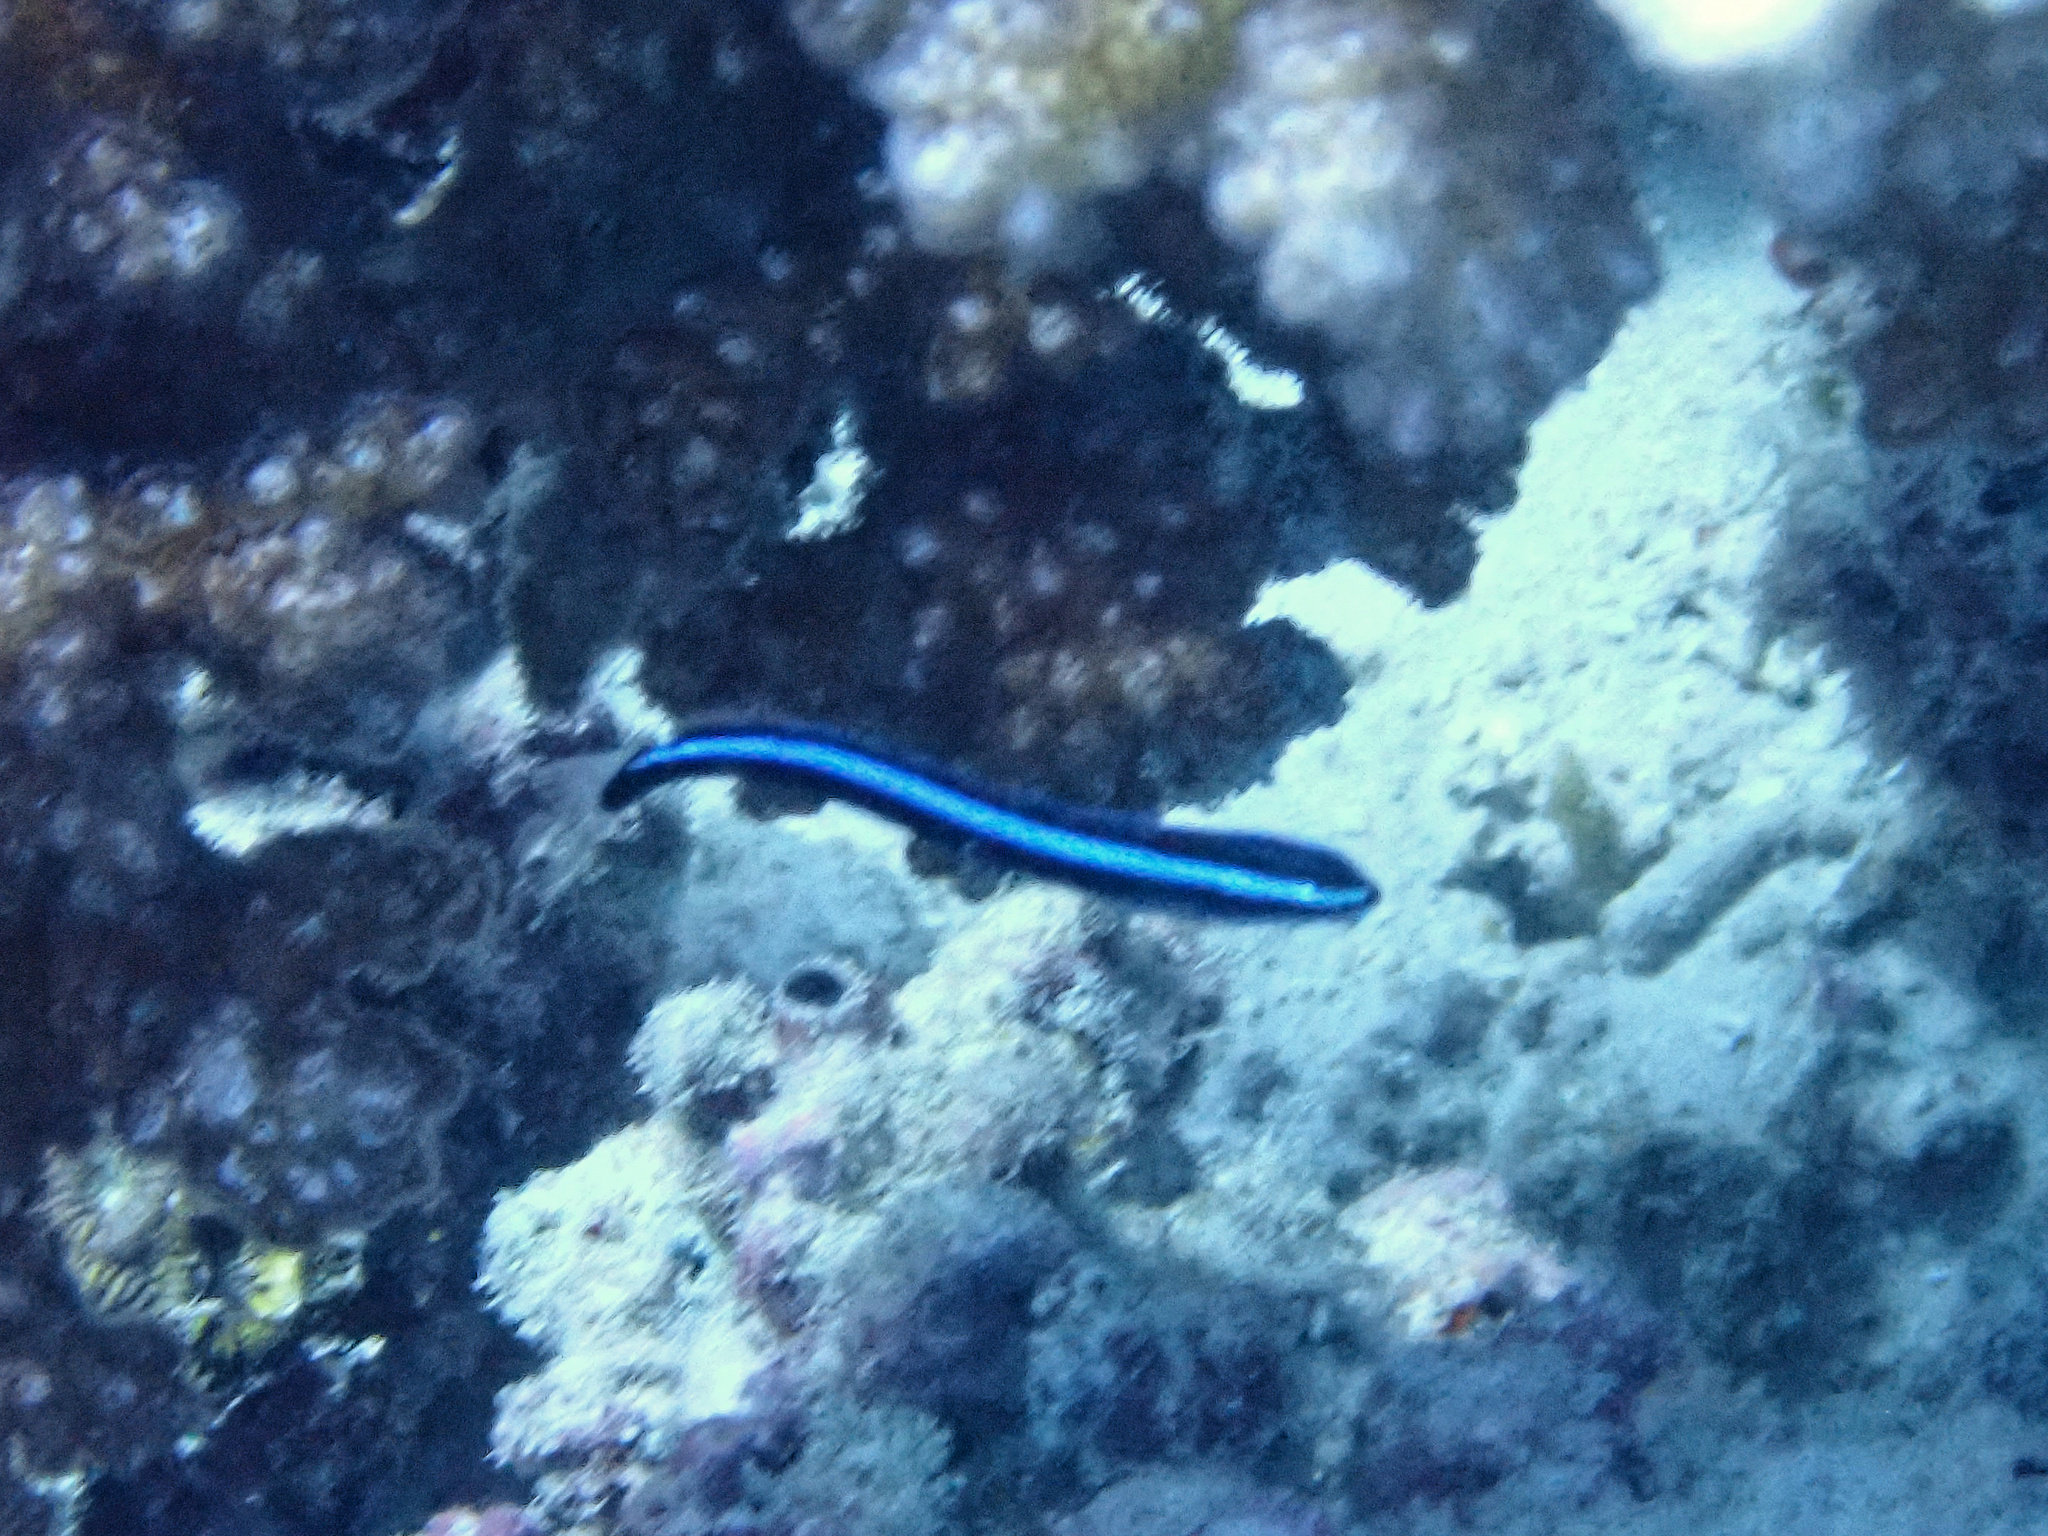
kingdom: Animalia
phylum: Chordata
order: Perciformes
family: Blenniidae
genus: Plagiotremus
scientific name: Plagiotremus rhinorhynchos
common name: Bluestriped fangblenny
